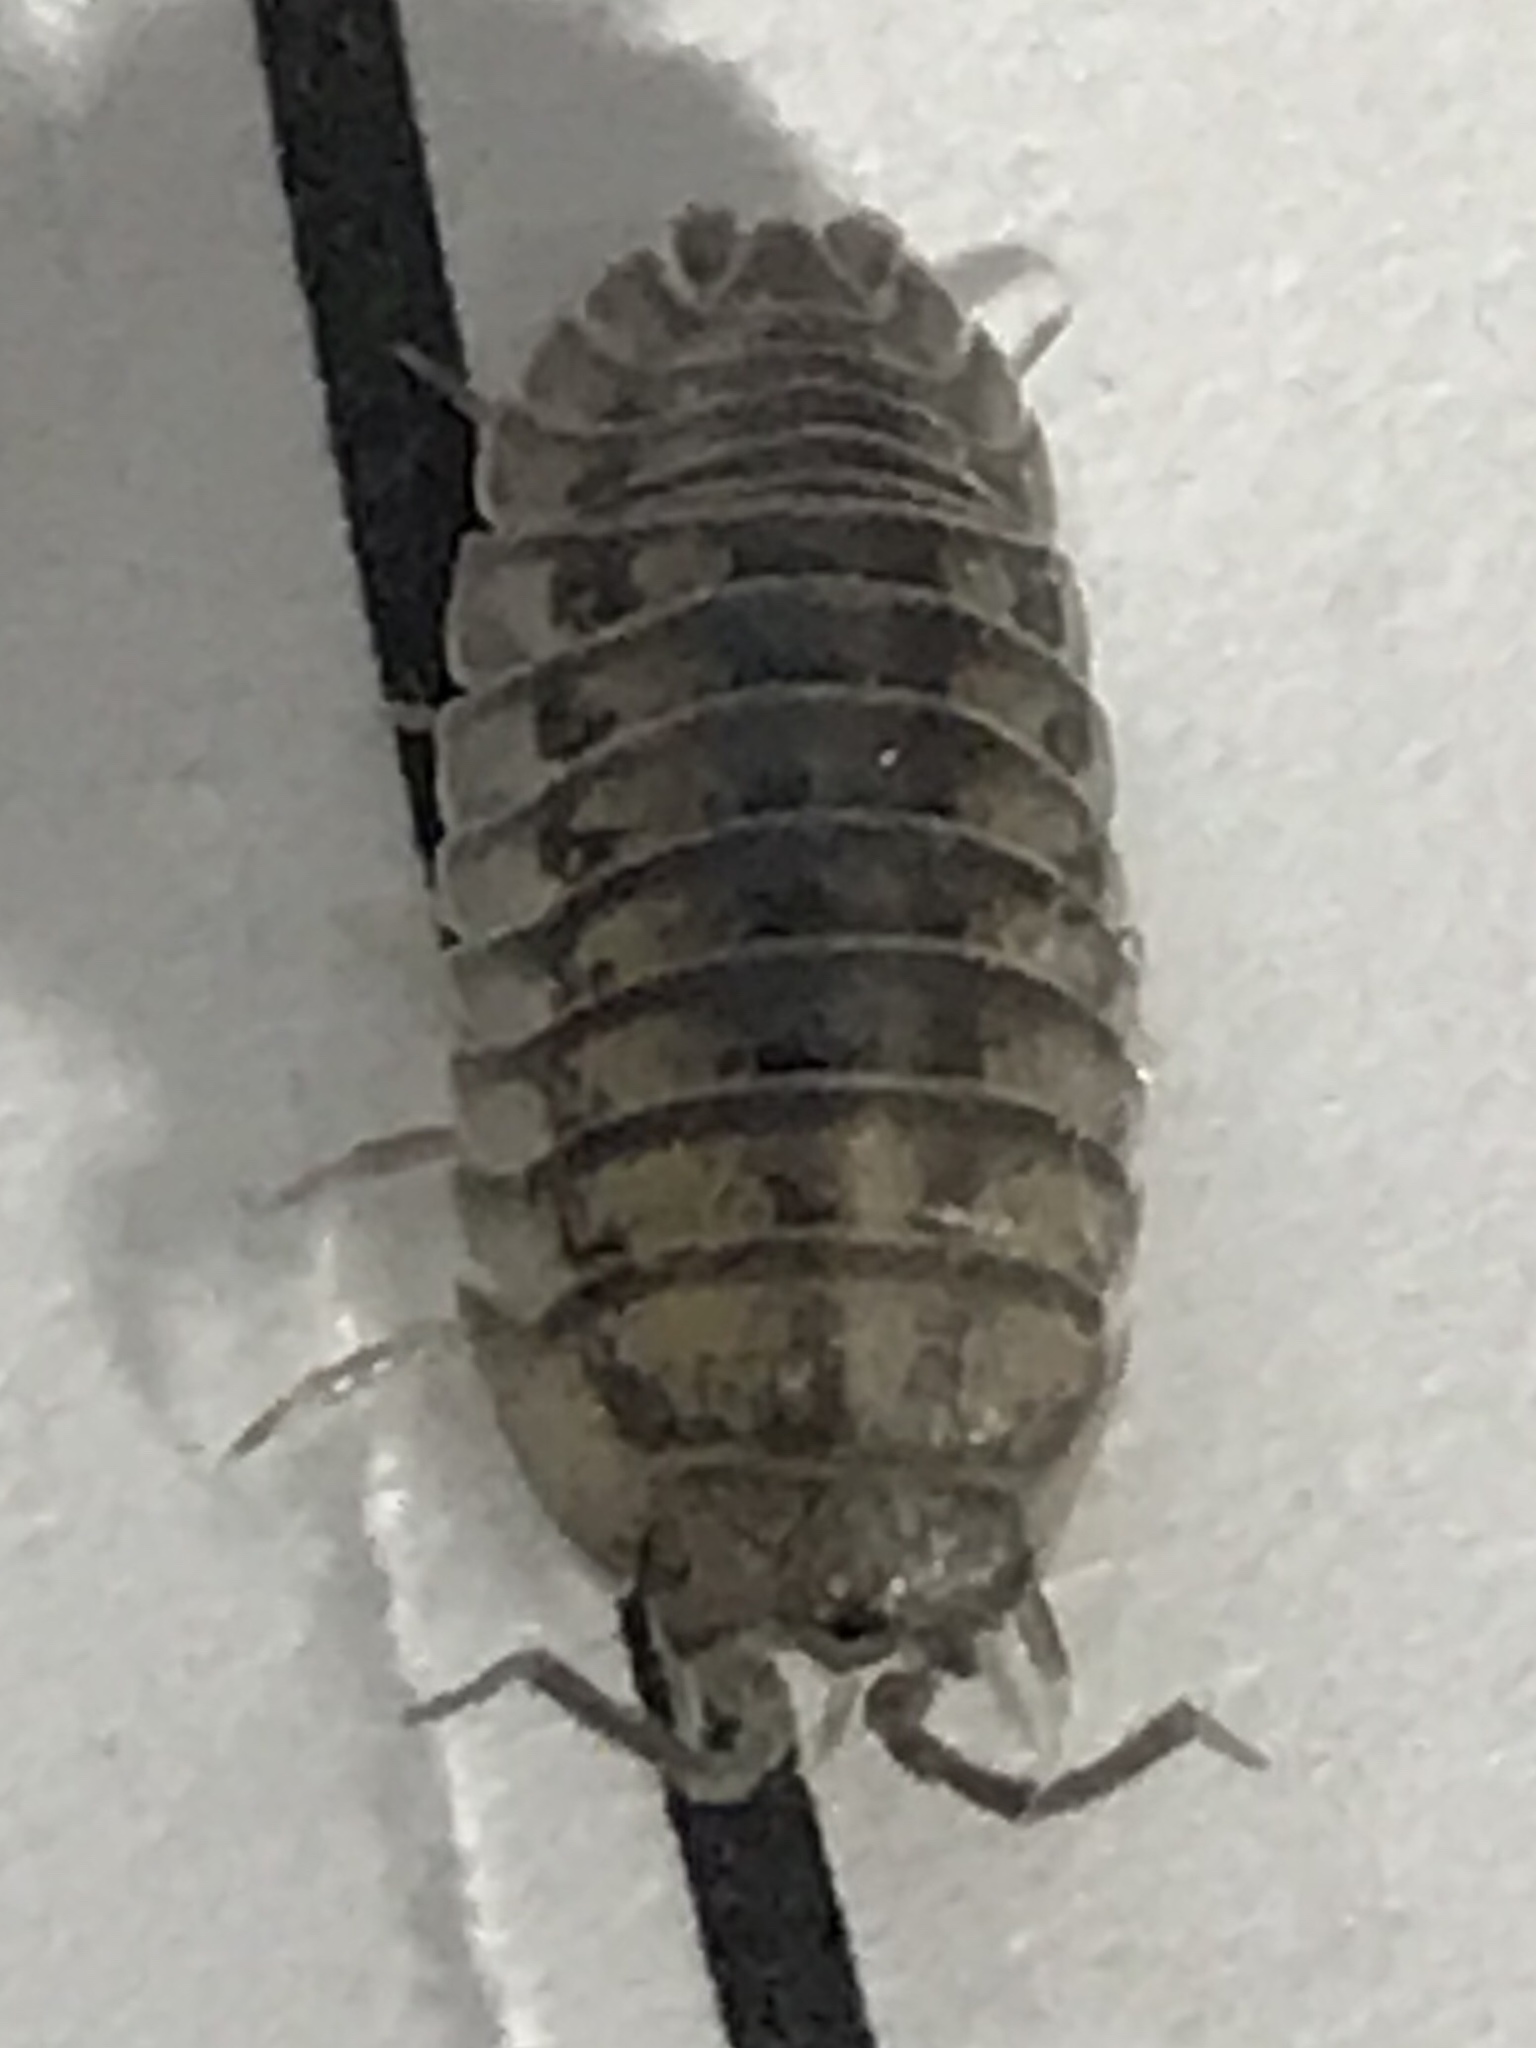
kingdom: Animalia
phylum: Arthropoda
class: Malacostraca
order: Isopoda
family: Armadillidiidae
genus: Armadillidium
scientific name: Armadillidium nasatum
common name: Isopod
